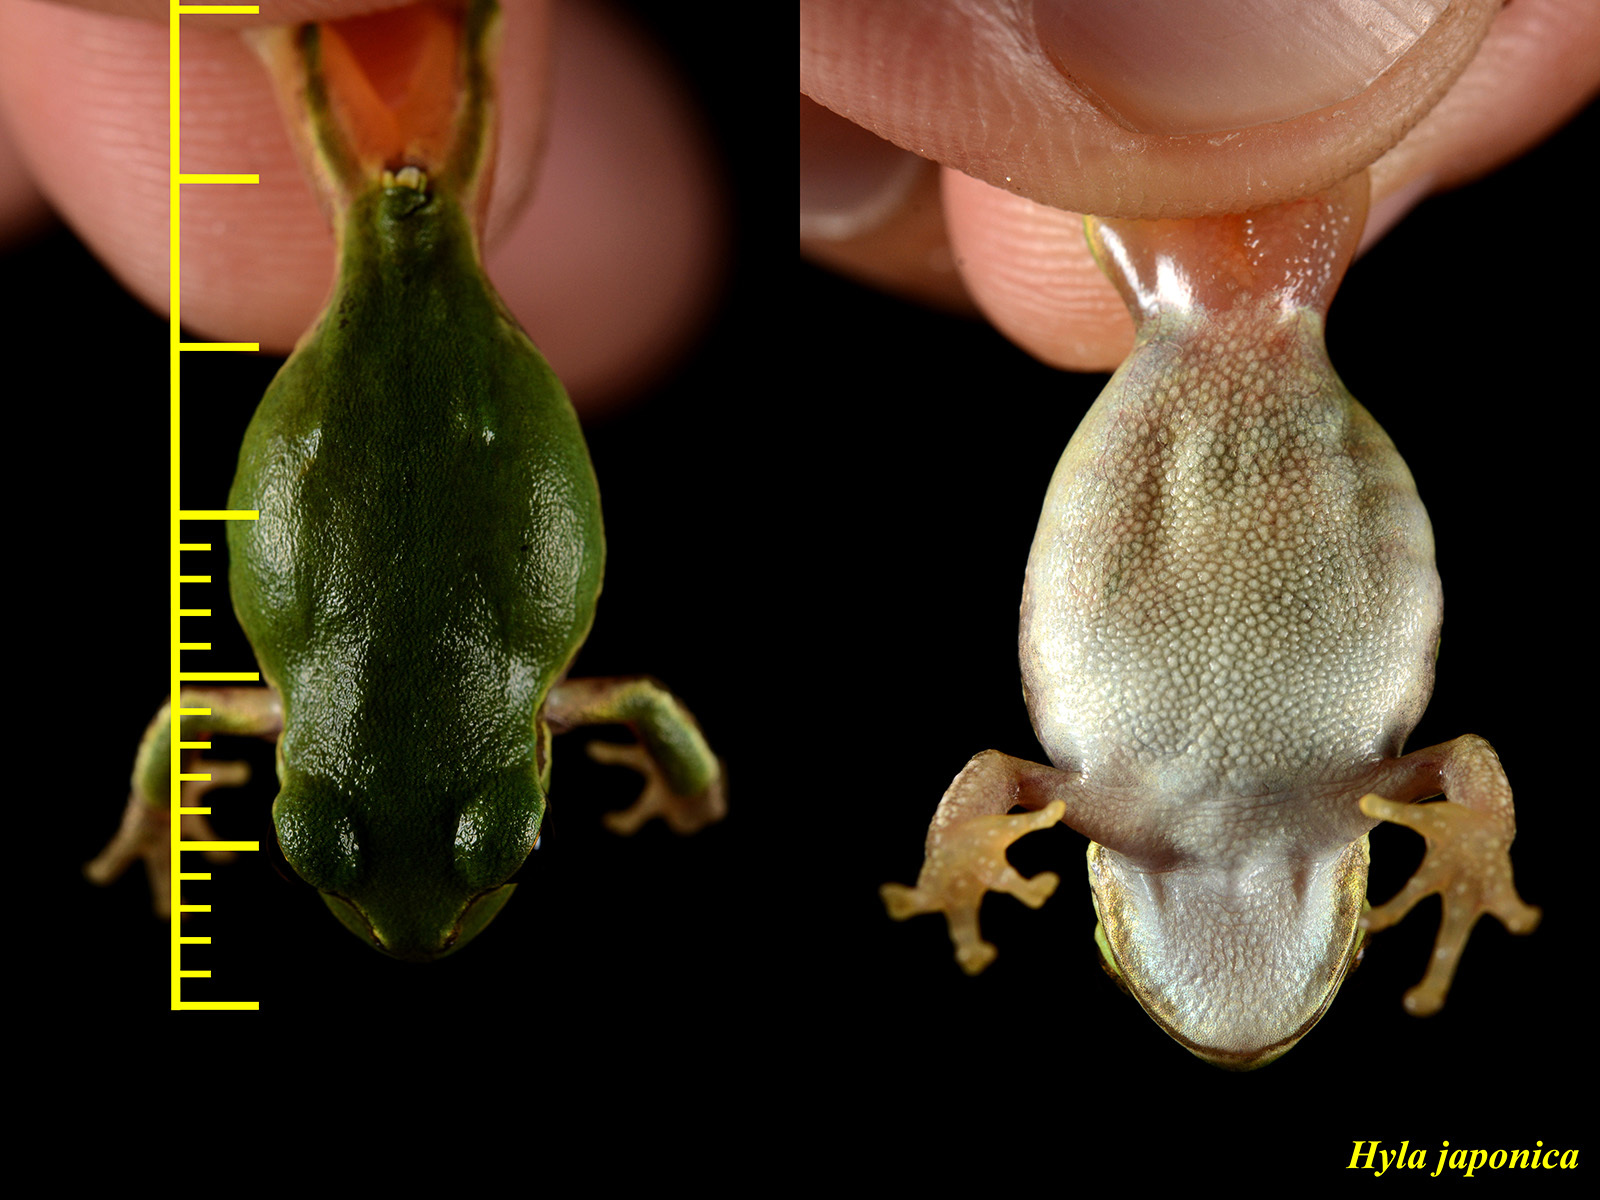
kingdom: Animalia
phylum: Chordata
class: Amphibia
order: Anura
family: Hylidae
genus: Dryophytes
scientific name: Dryophytes japonicus
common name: Japanese treefrog
